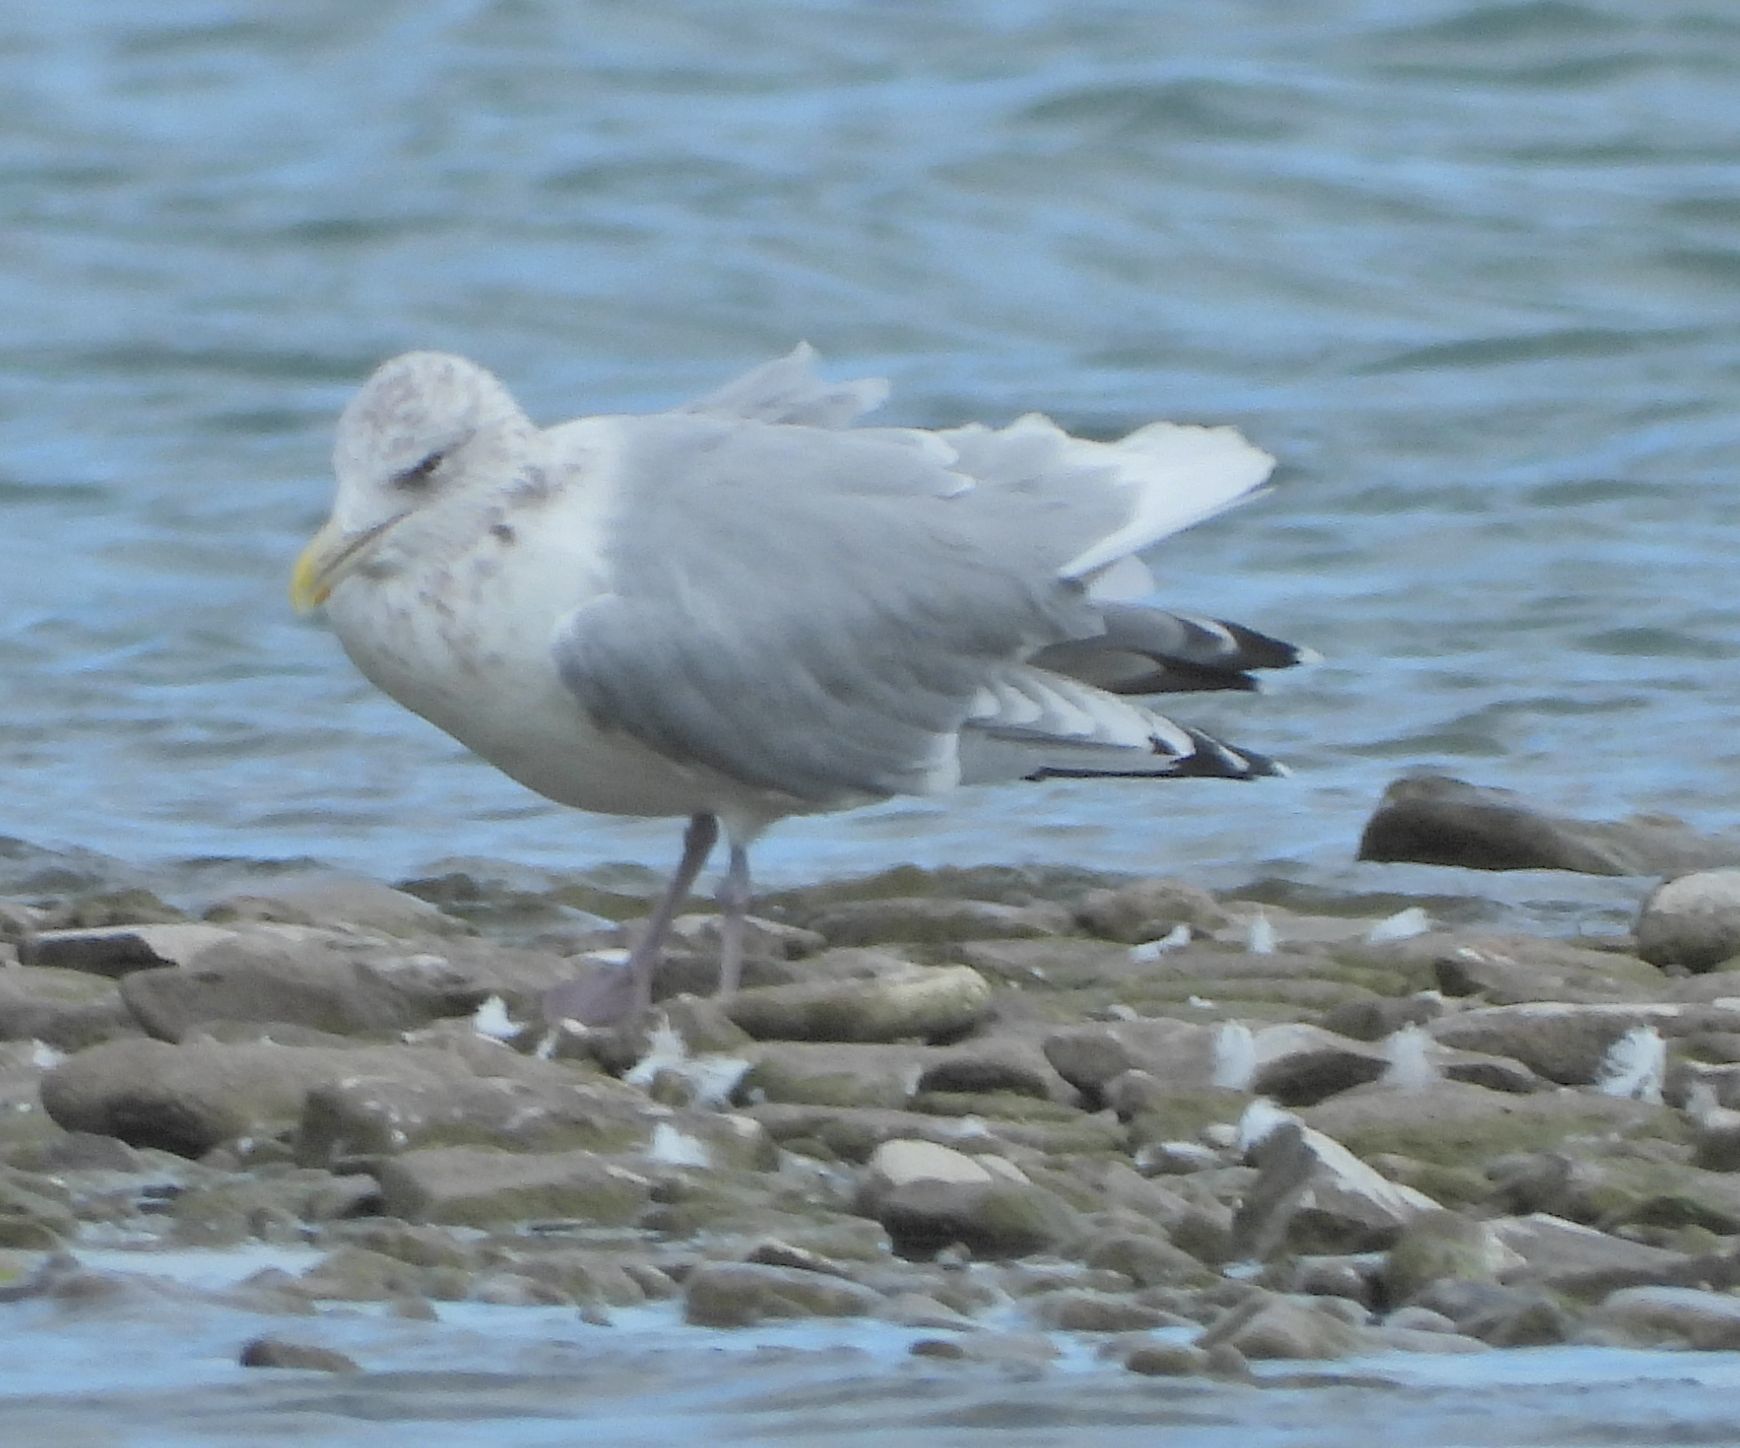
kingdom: Animalia
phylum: Chordata
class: Aves
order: Charadriiformes
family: Laridae
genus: Larus
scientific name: Larus argentatus
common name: Herring gull
